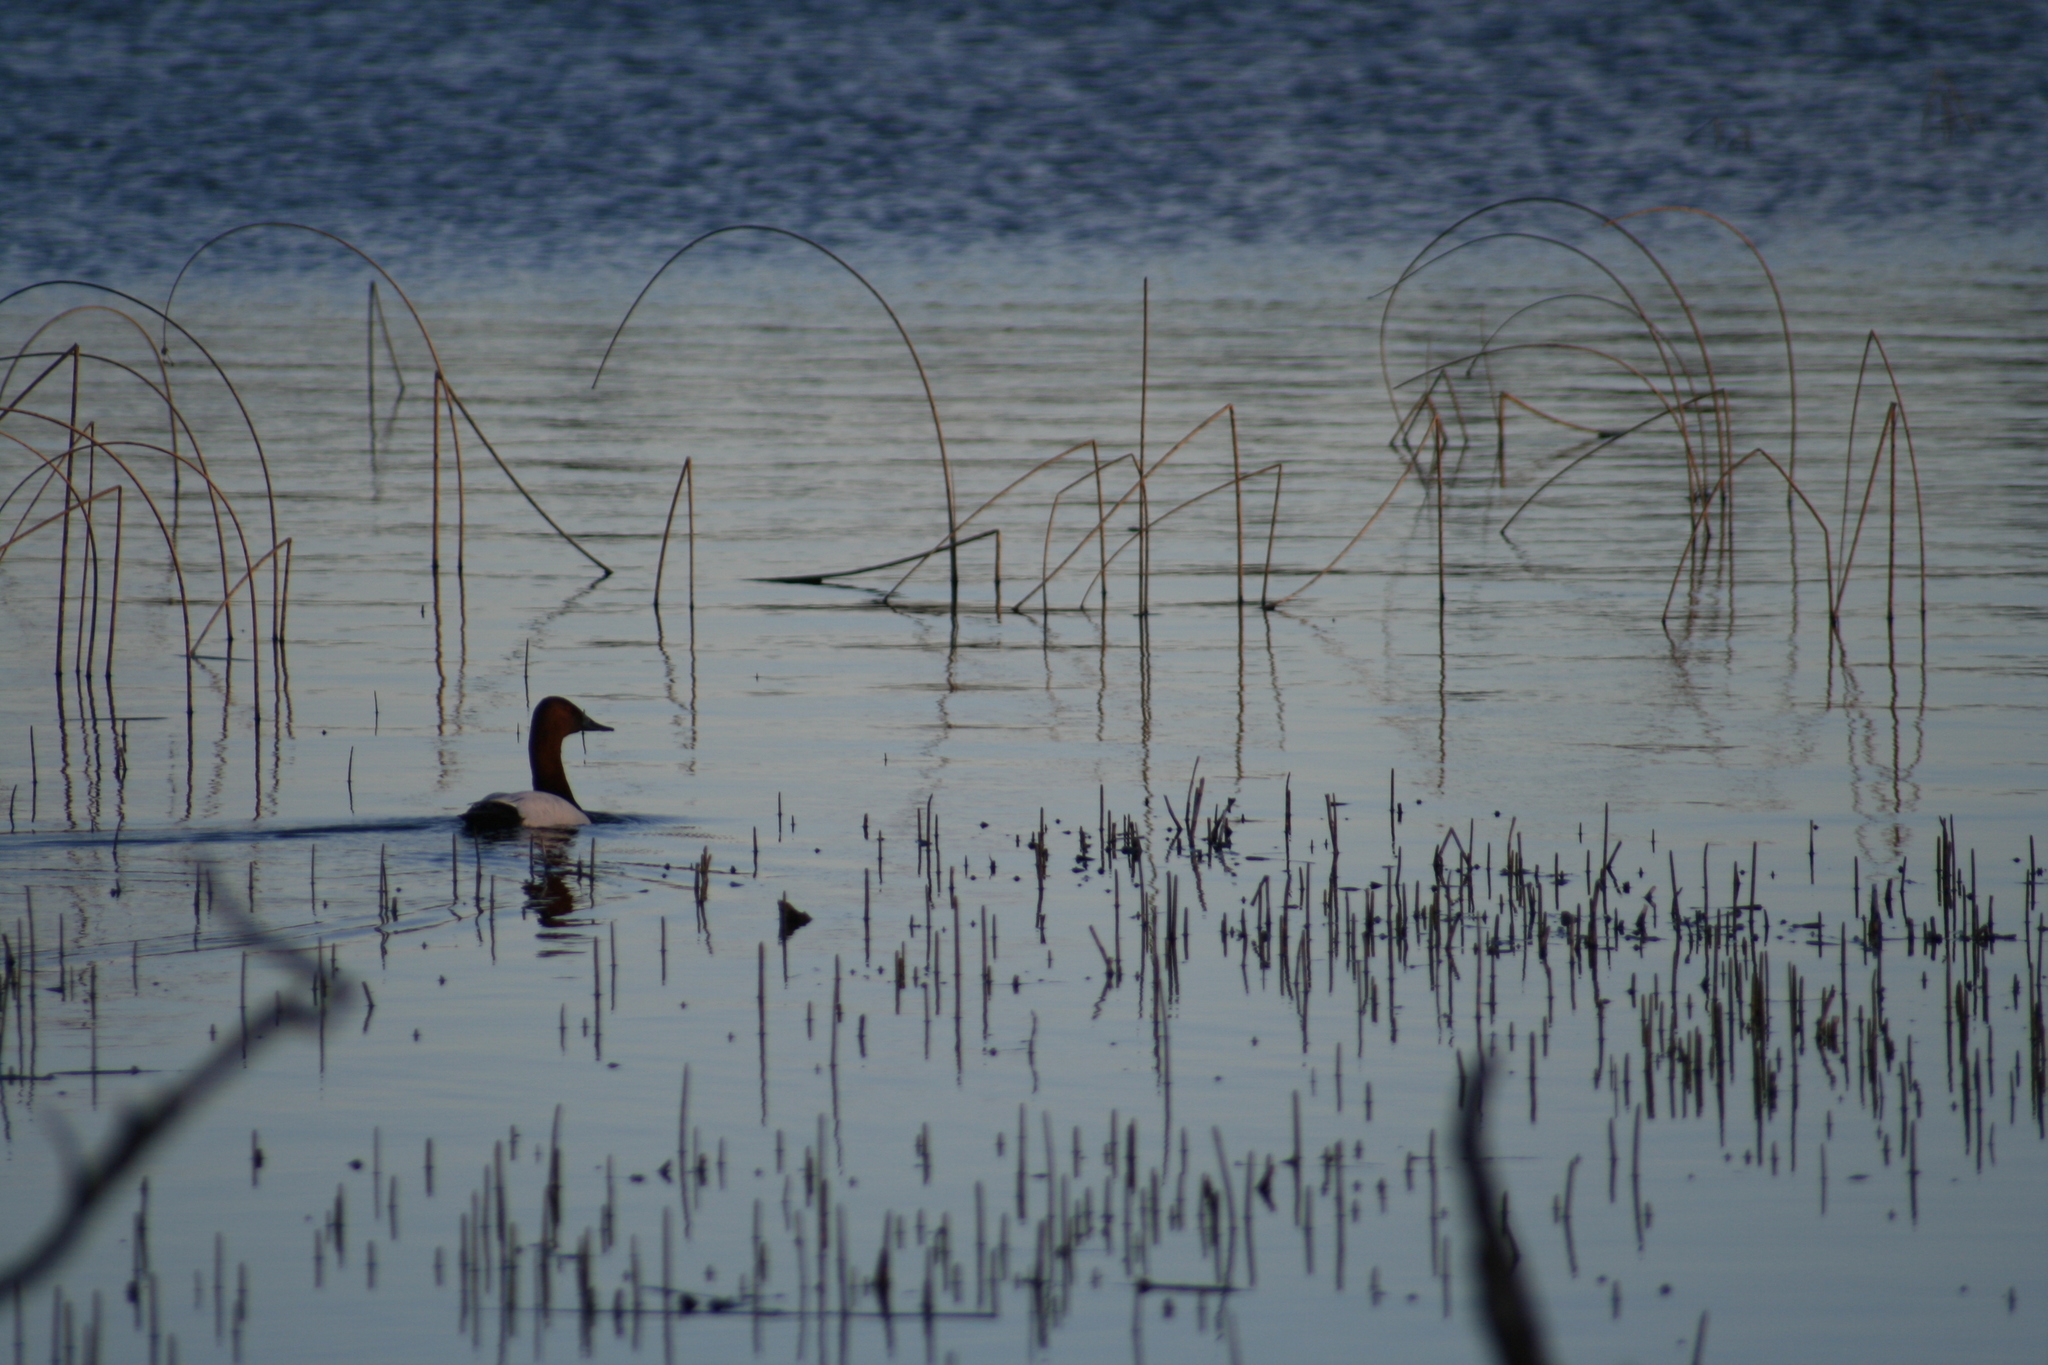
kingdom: Animalia
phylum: Chordata
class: Aves
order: Anseriformes
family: Anatidae
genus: Aythya
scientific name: Aythya valisineria
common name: Canvasback
